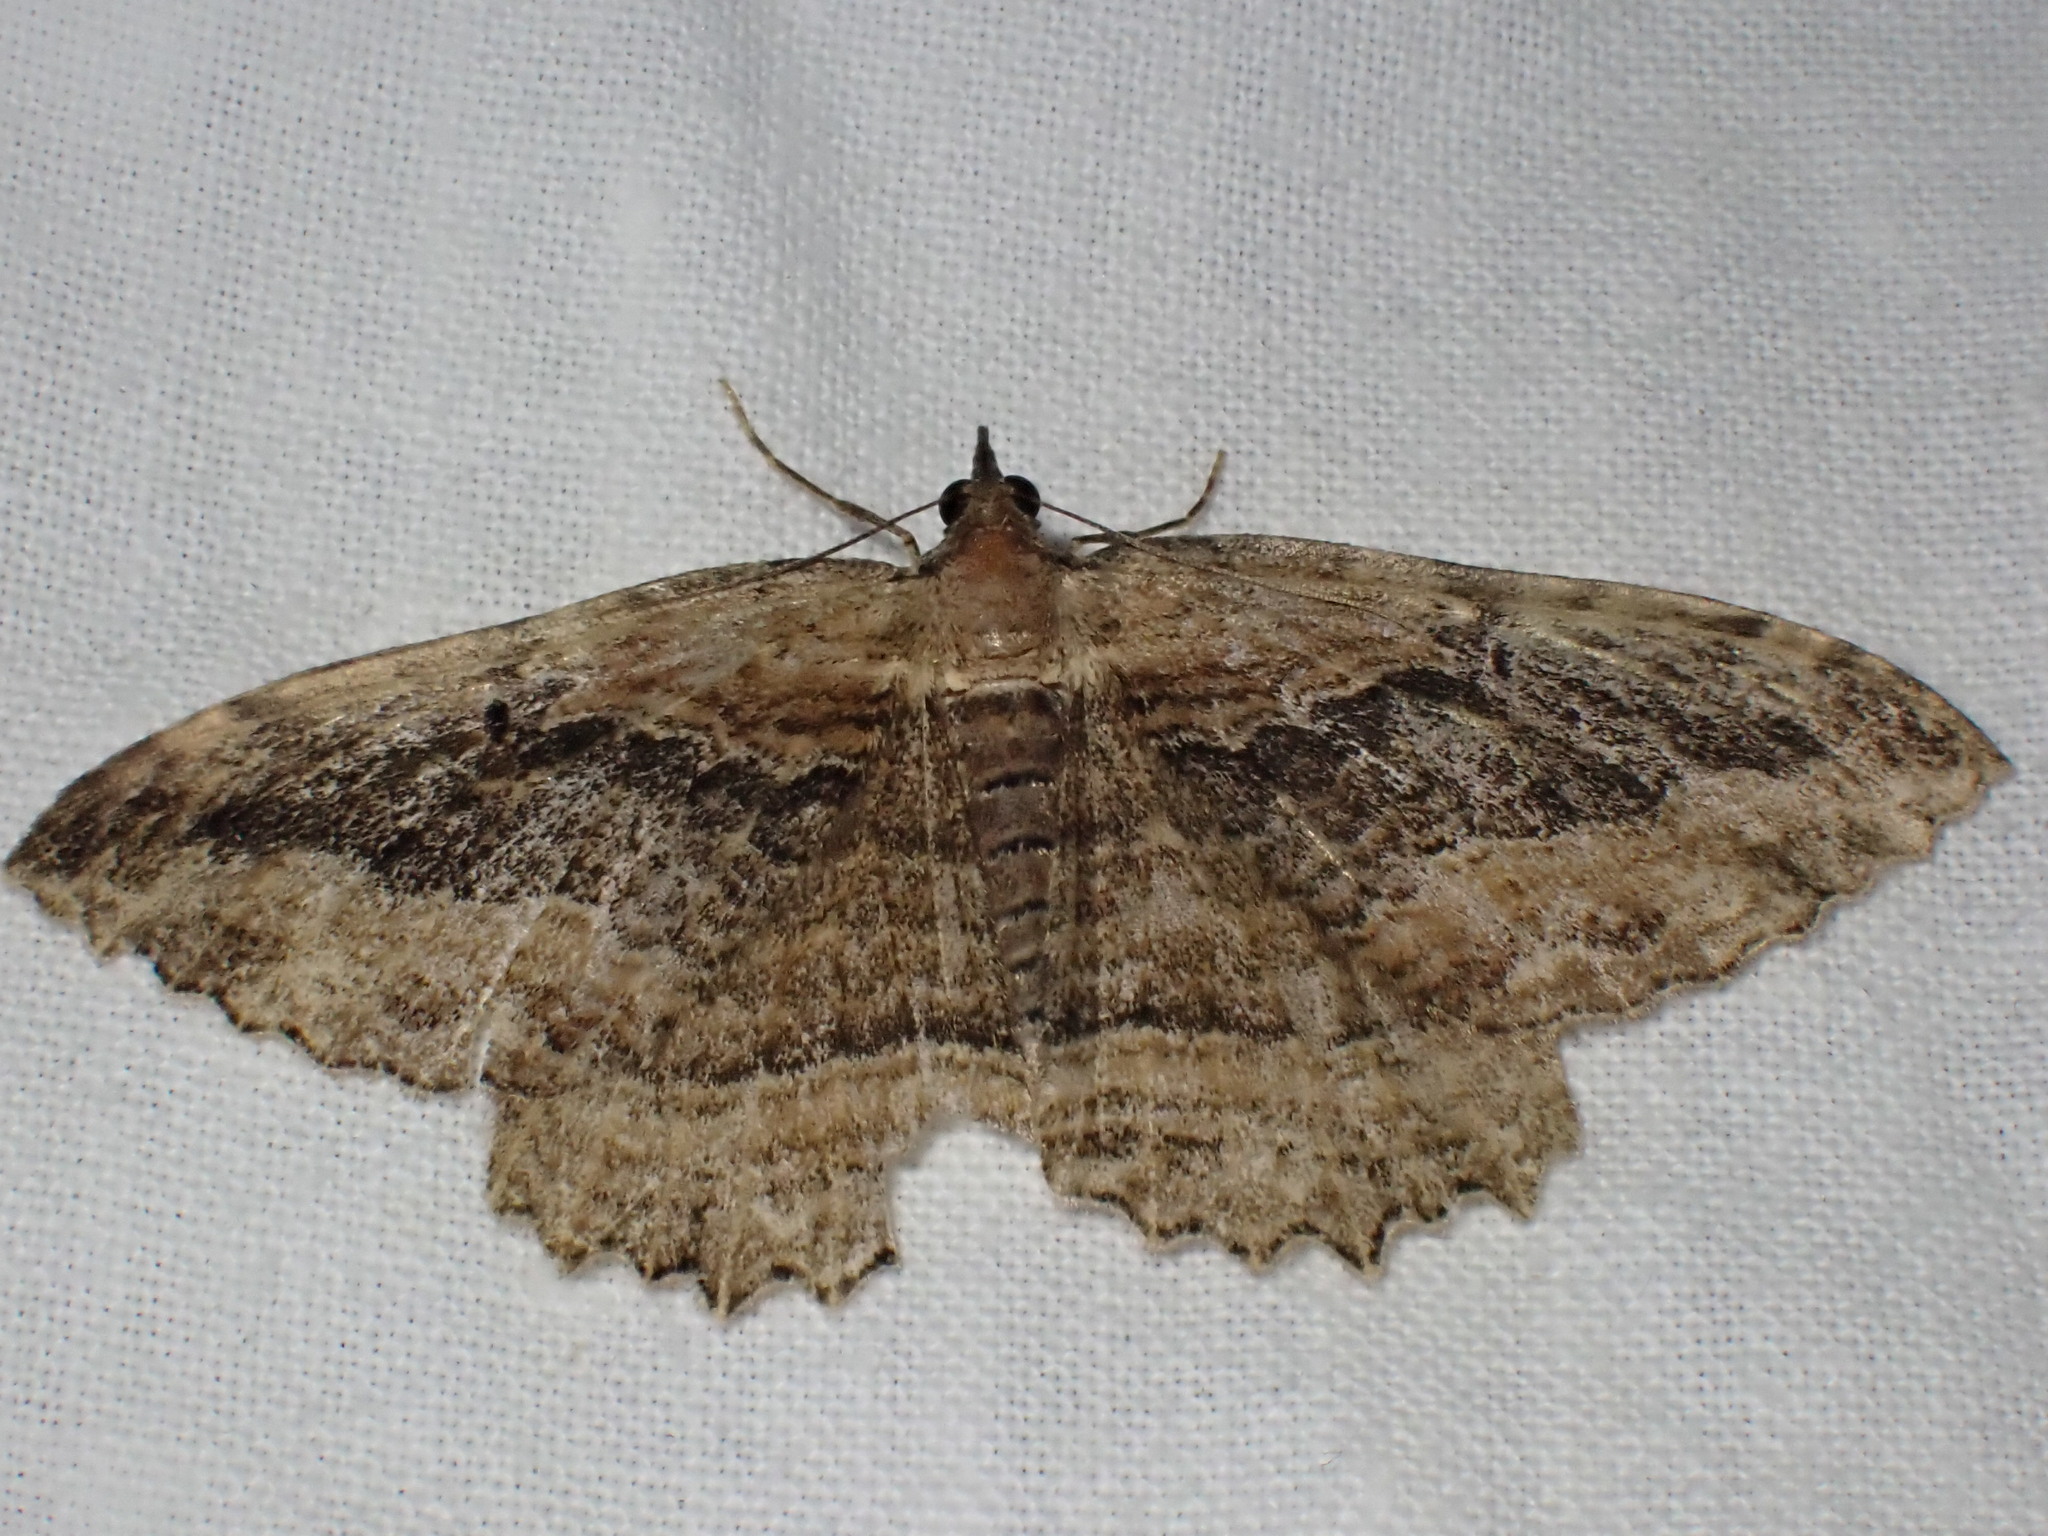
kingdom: Animalia
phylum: Arthropoda
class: Insecta
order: Lepidoptera
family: Geometridae
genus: Philereme
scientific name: Philereme transversata
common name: Dark umber
